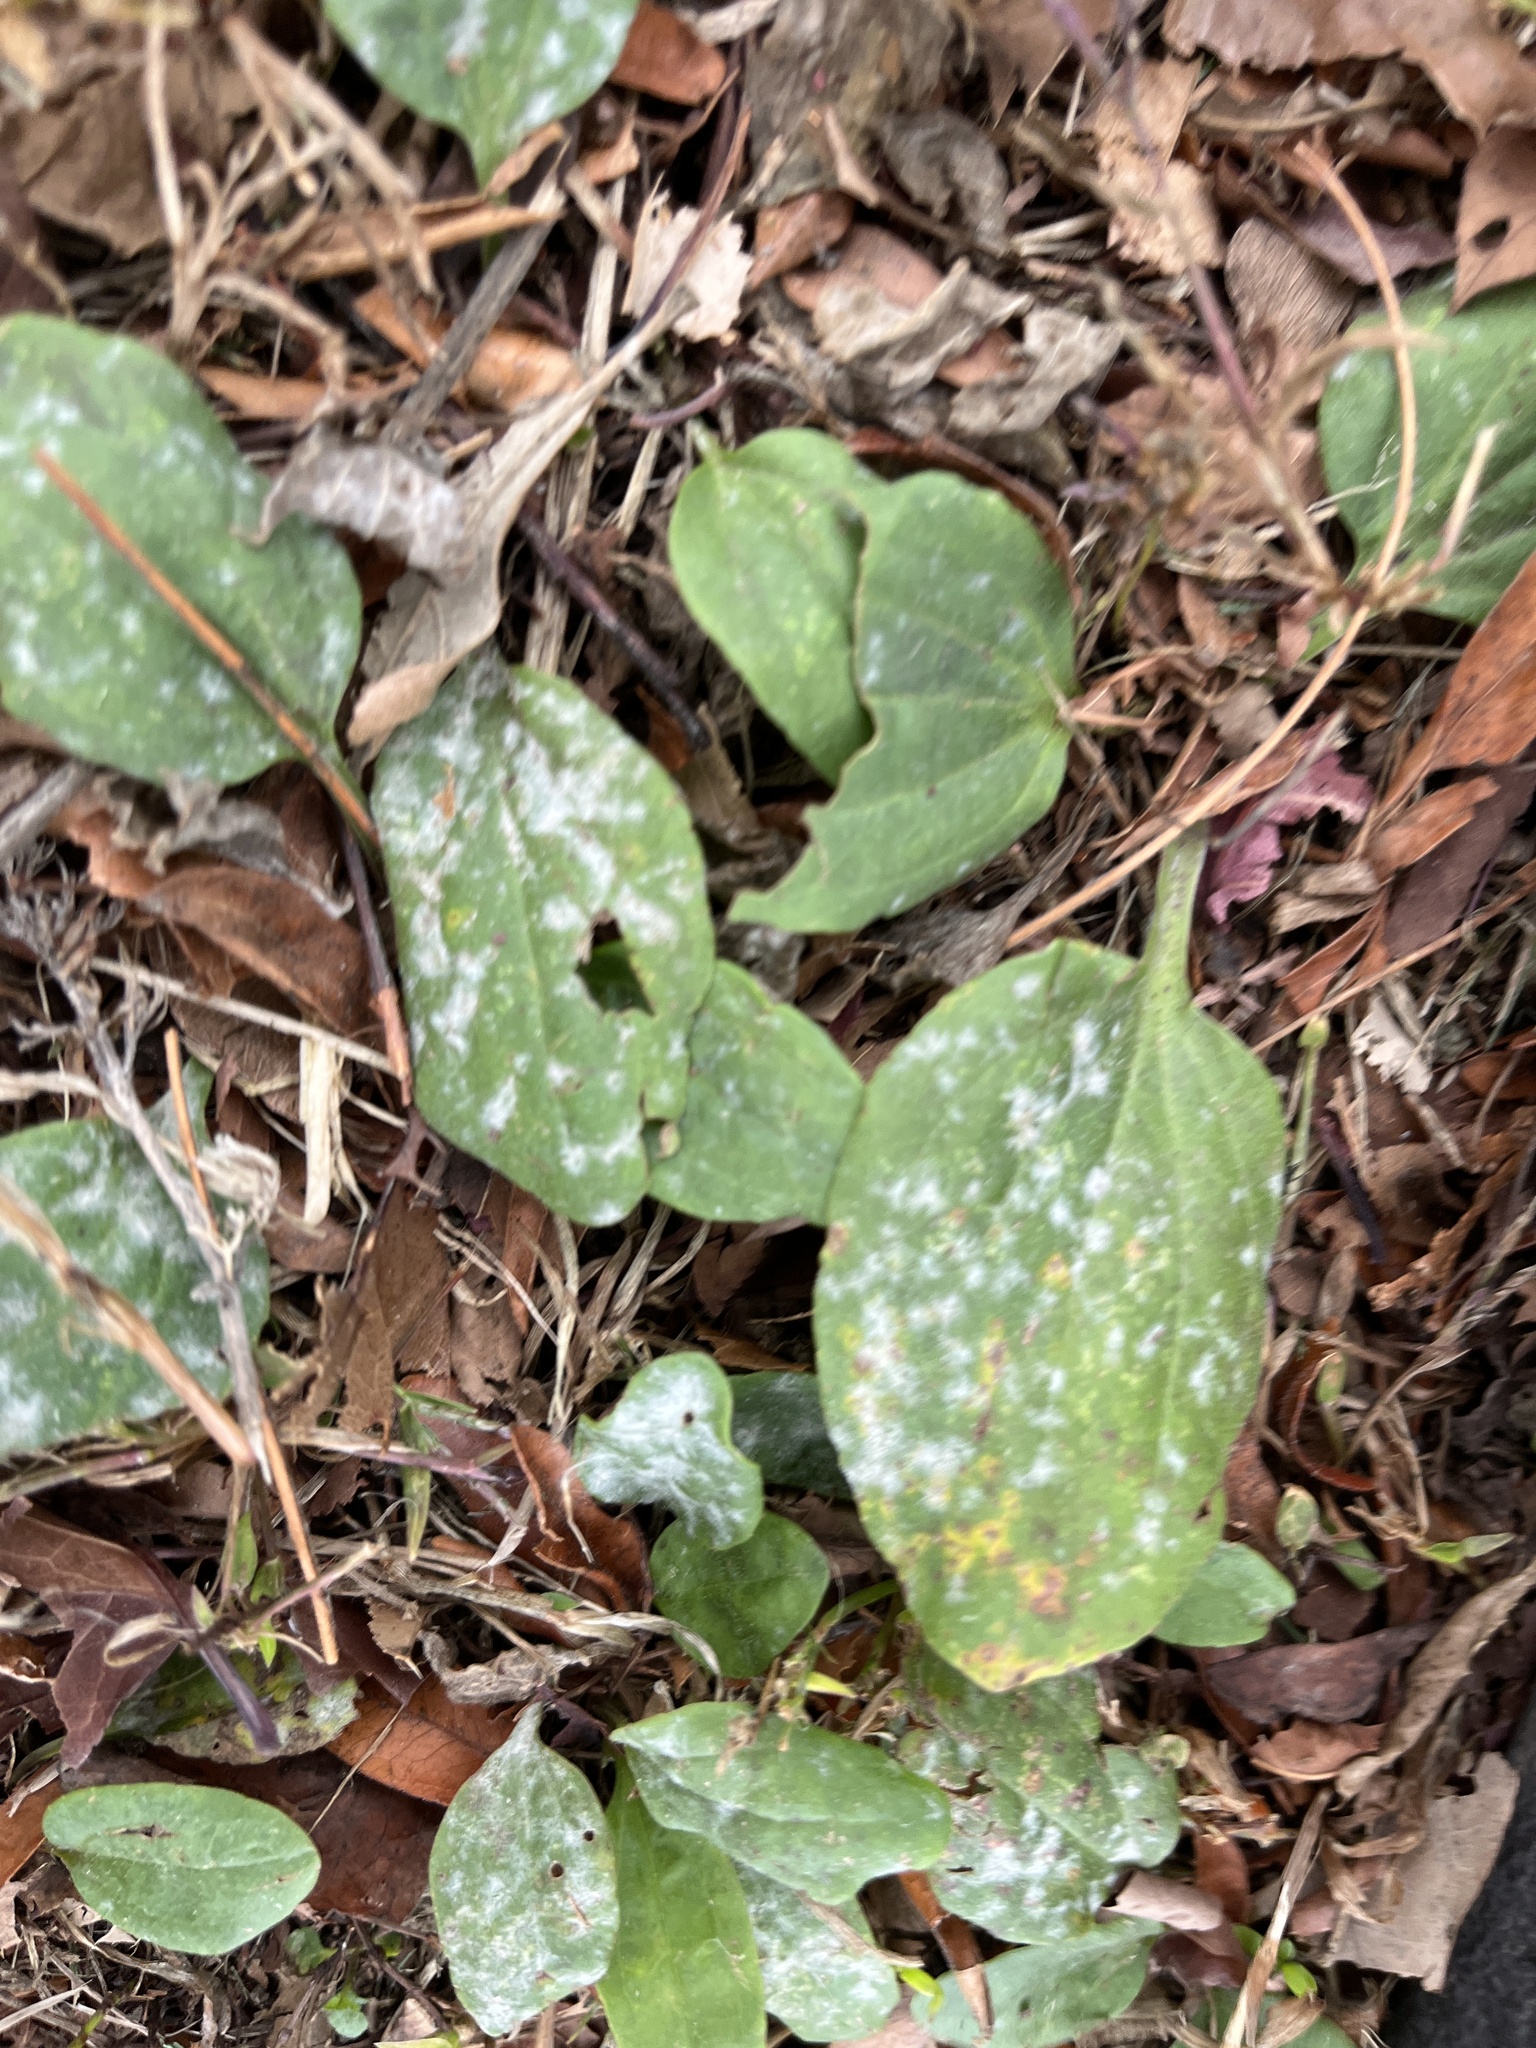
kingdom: Fungi
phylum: Ascomycota
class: Leotiomycetes
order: Helotiales
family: Erysiphaceae
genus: Golovinomyces
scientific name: Golovinomyces sordidus
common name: Plantain mildew
